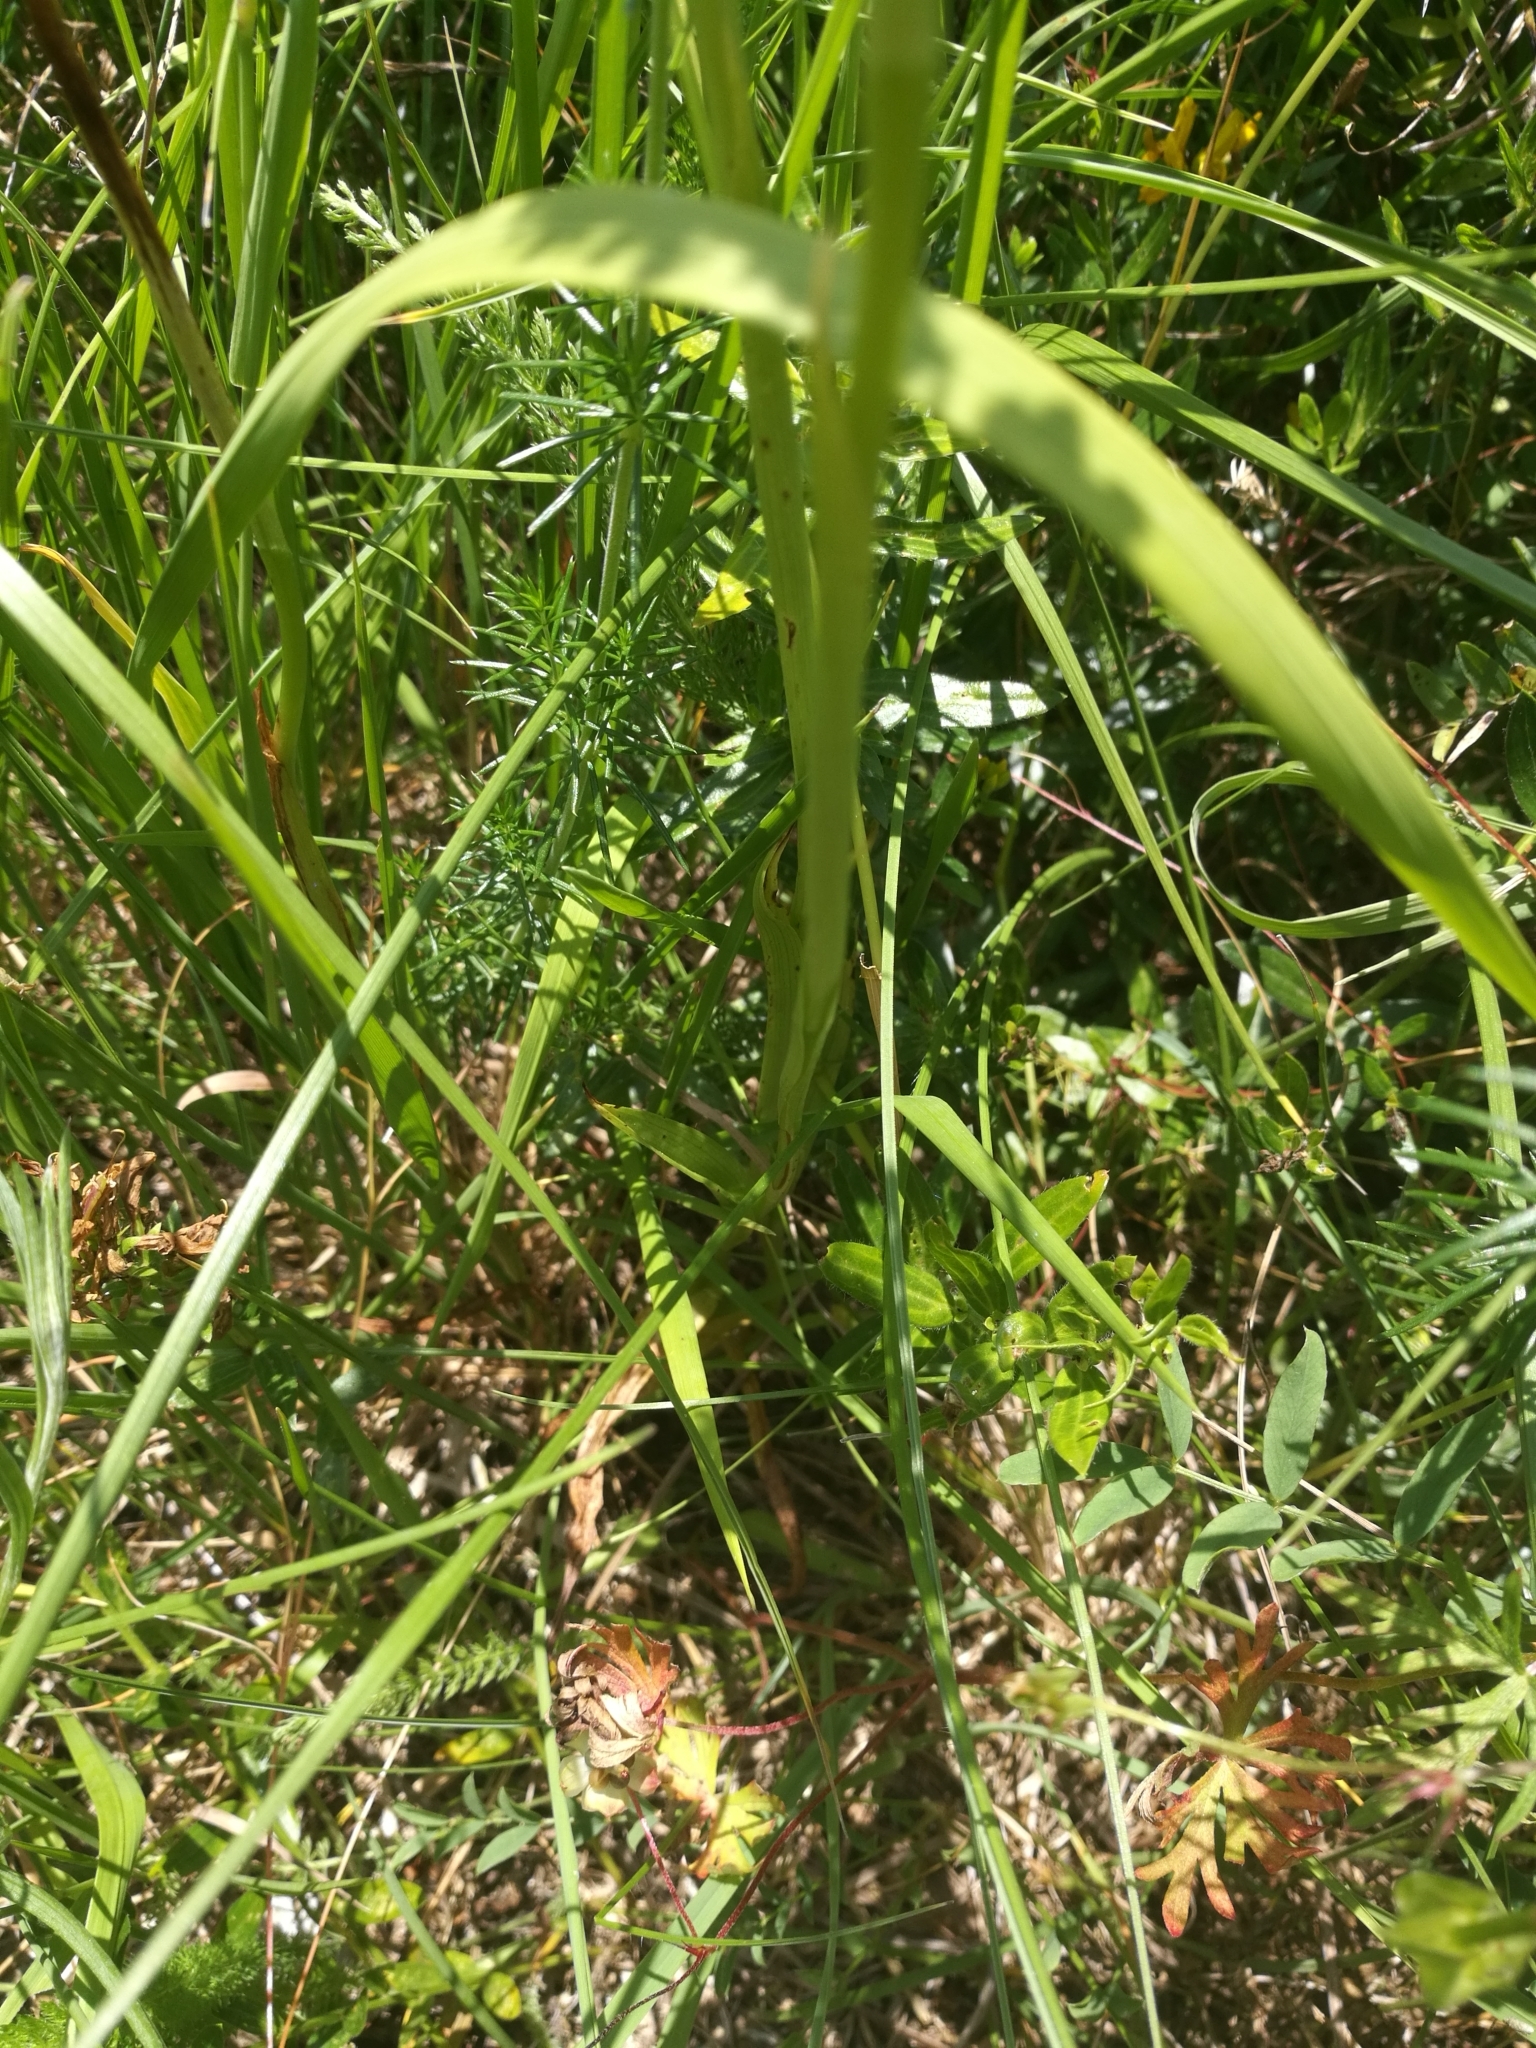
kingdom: Plantae
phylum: Tracheophyta
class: Liliopsida
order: Asparagales
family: Orchidaceae
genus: Anacamptis
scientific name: Anacamptis pyramidalis
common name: Pyramidal orchid
